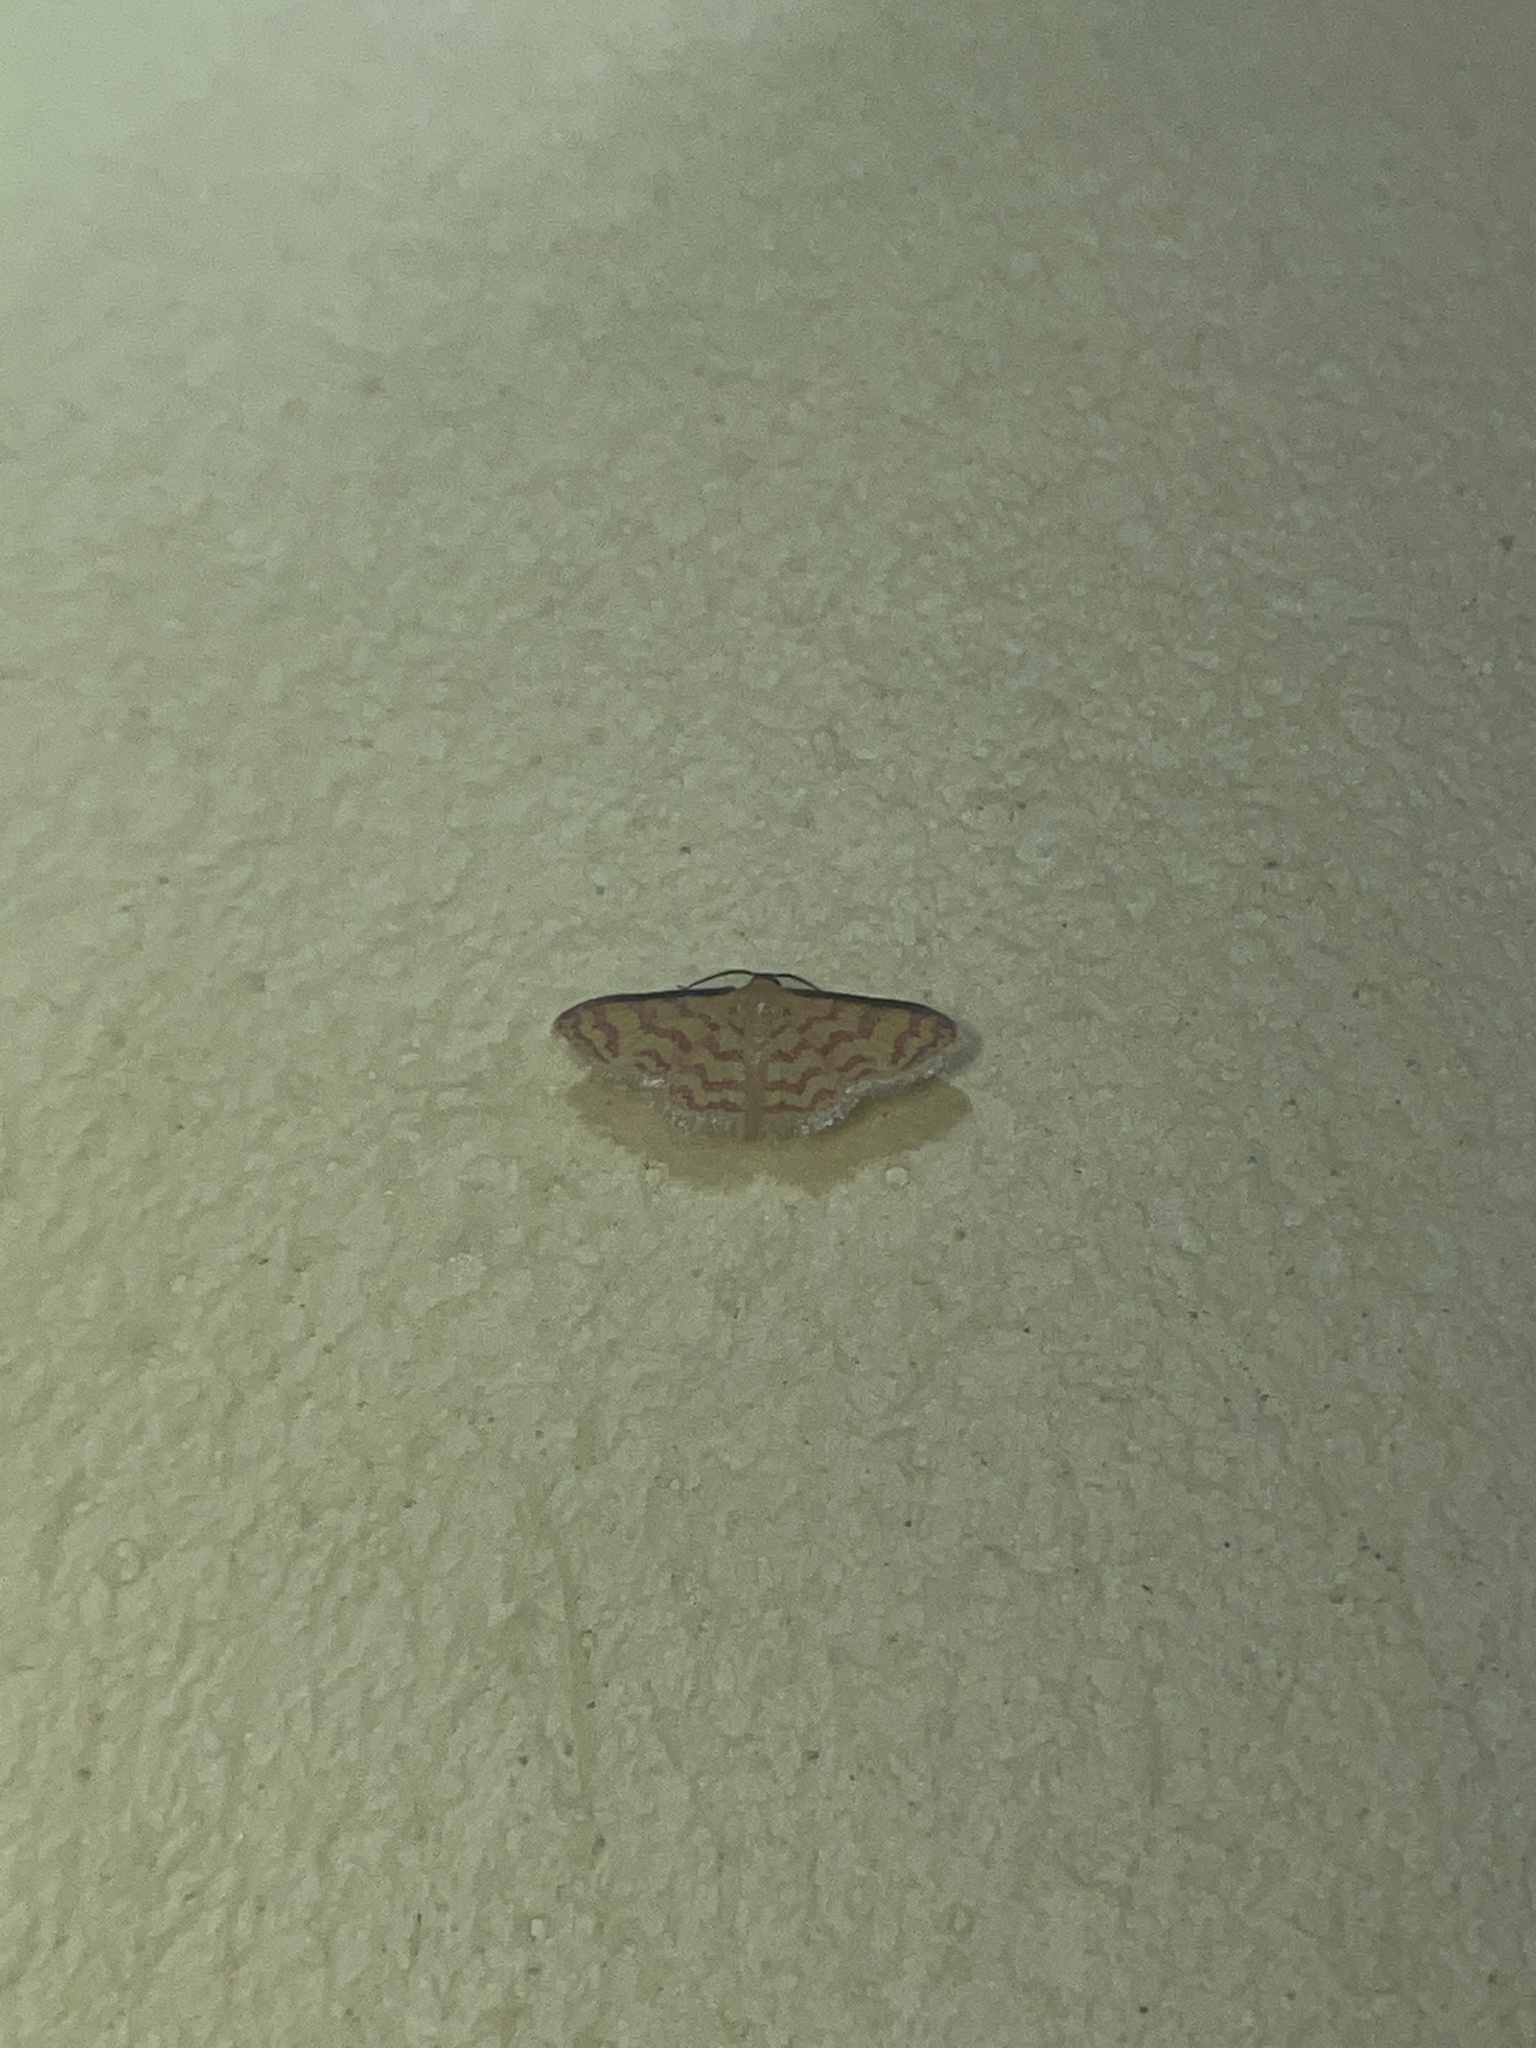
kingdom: Animalia
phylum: Arthropoda
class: Insecta
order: Lepidoptera
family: Geometridae
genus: Tricentrogyna
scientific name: Tricentrogyna deportata
